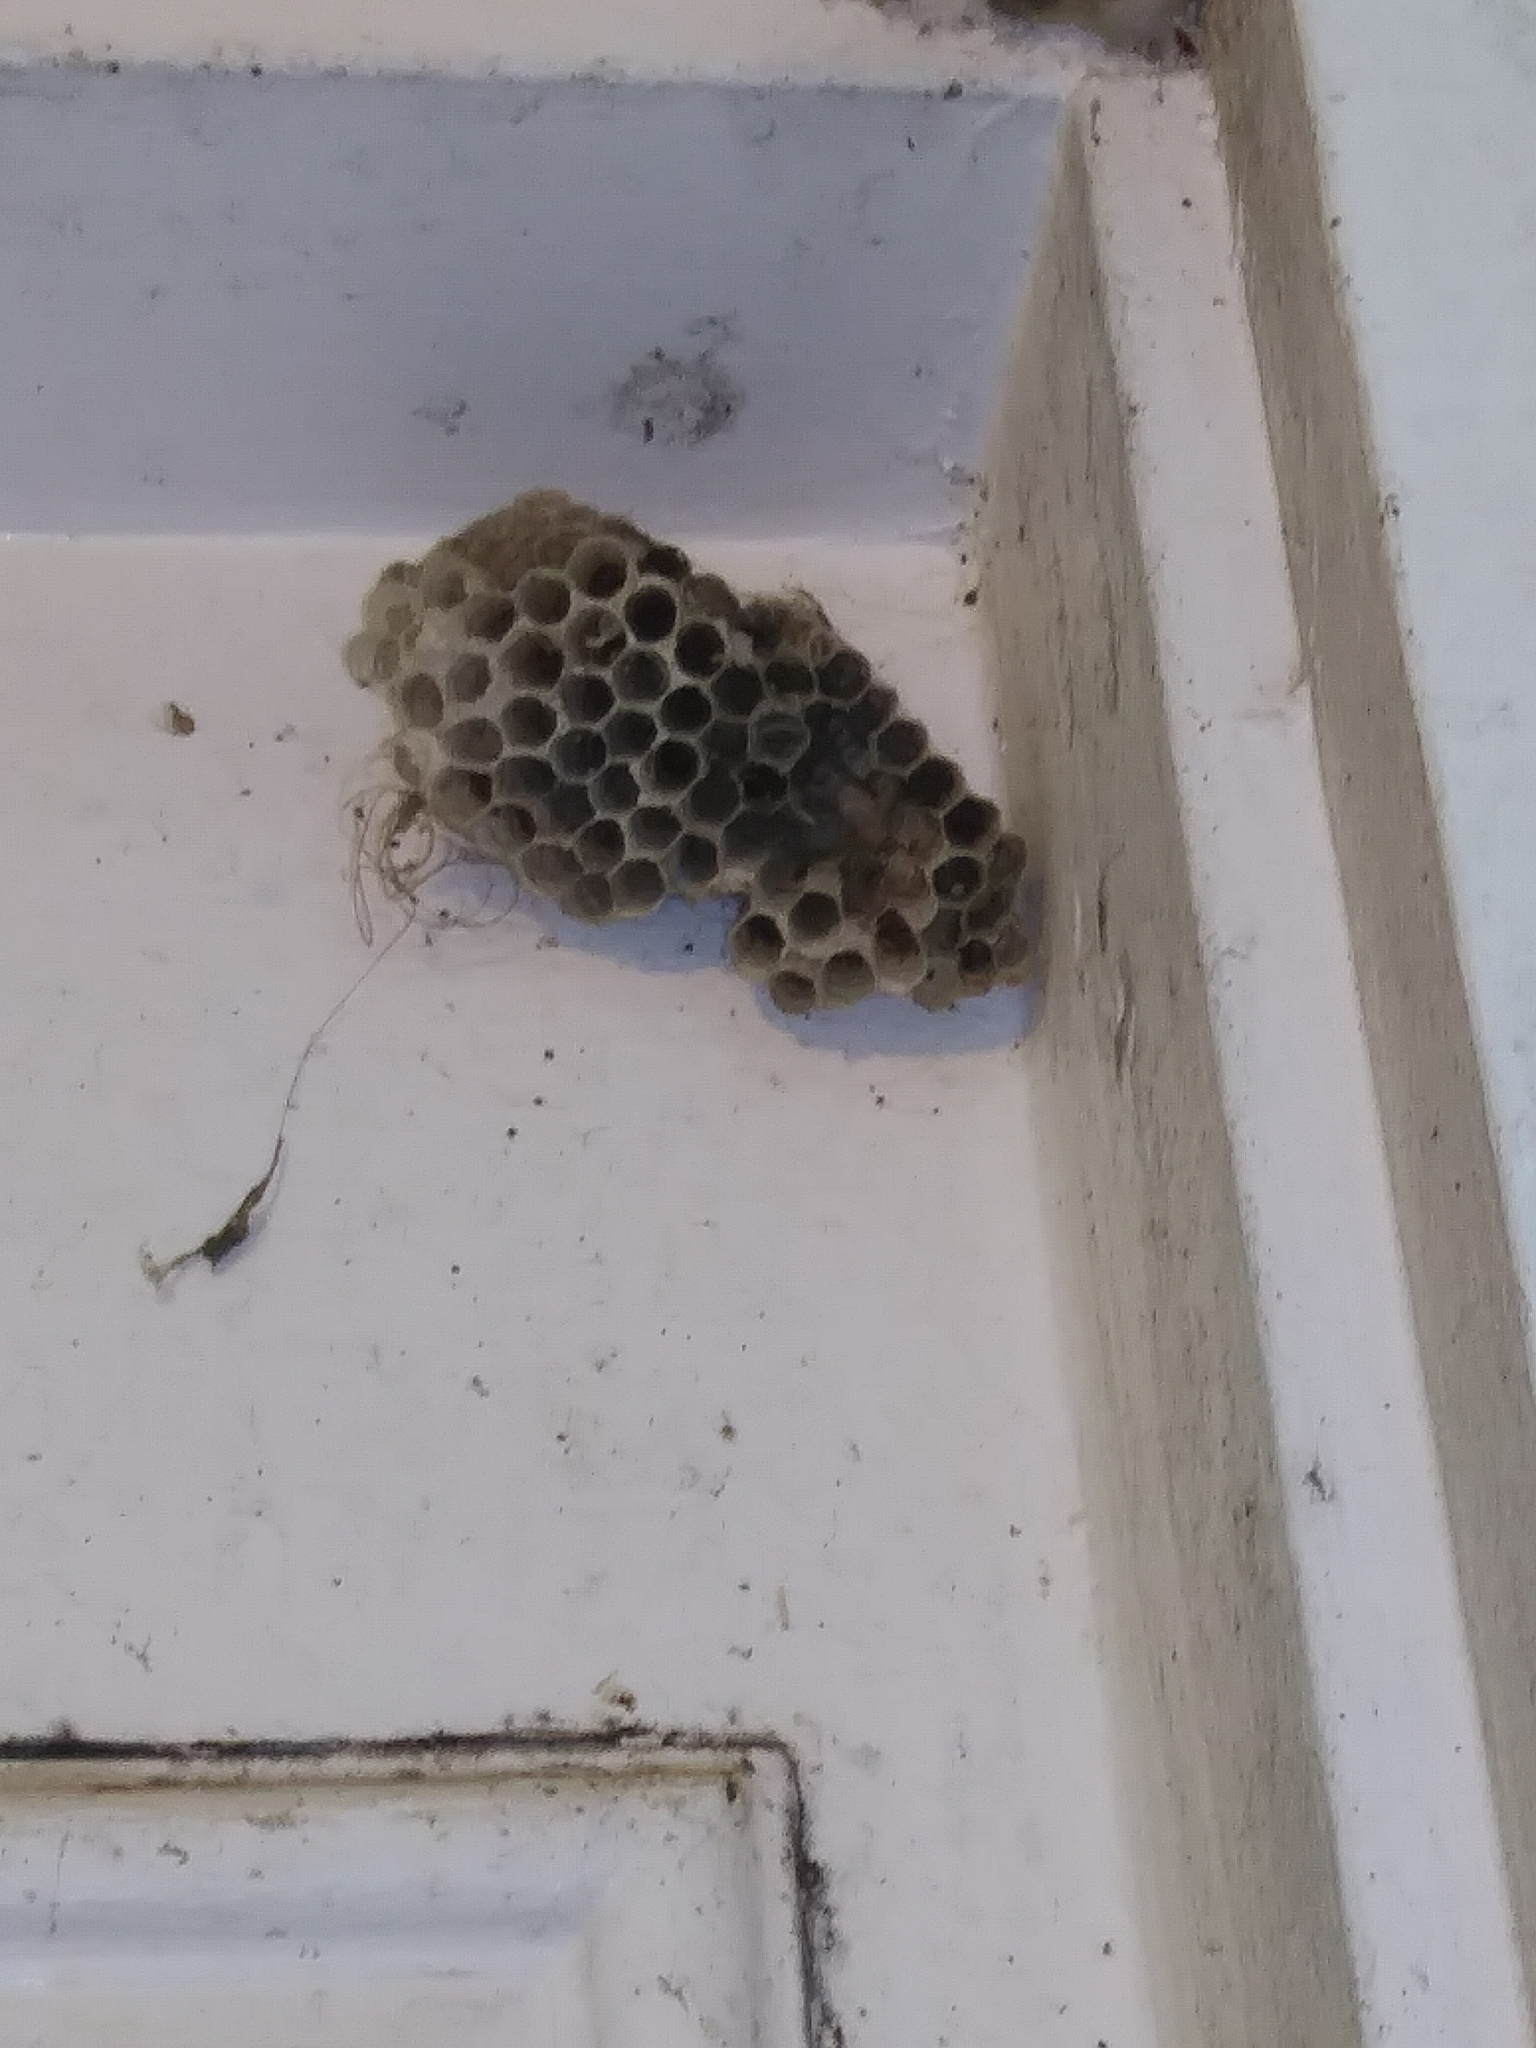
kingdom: Animalia
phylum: Arthropoda
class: Insecta
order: Hymenoptera
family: Eumenidae
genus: Polistes
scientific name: Polistes
